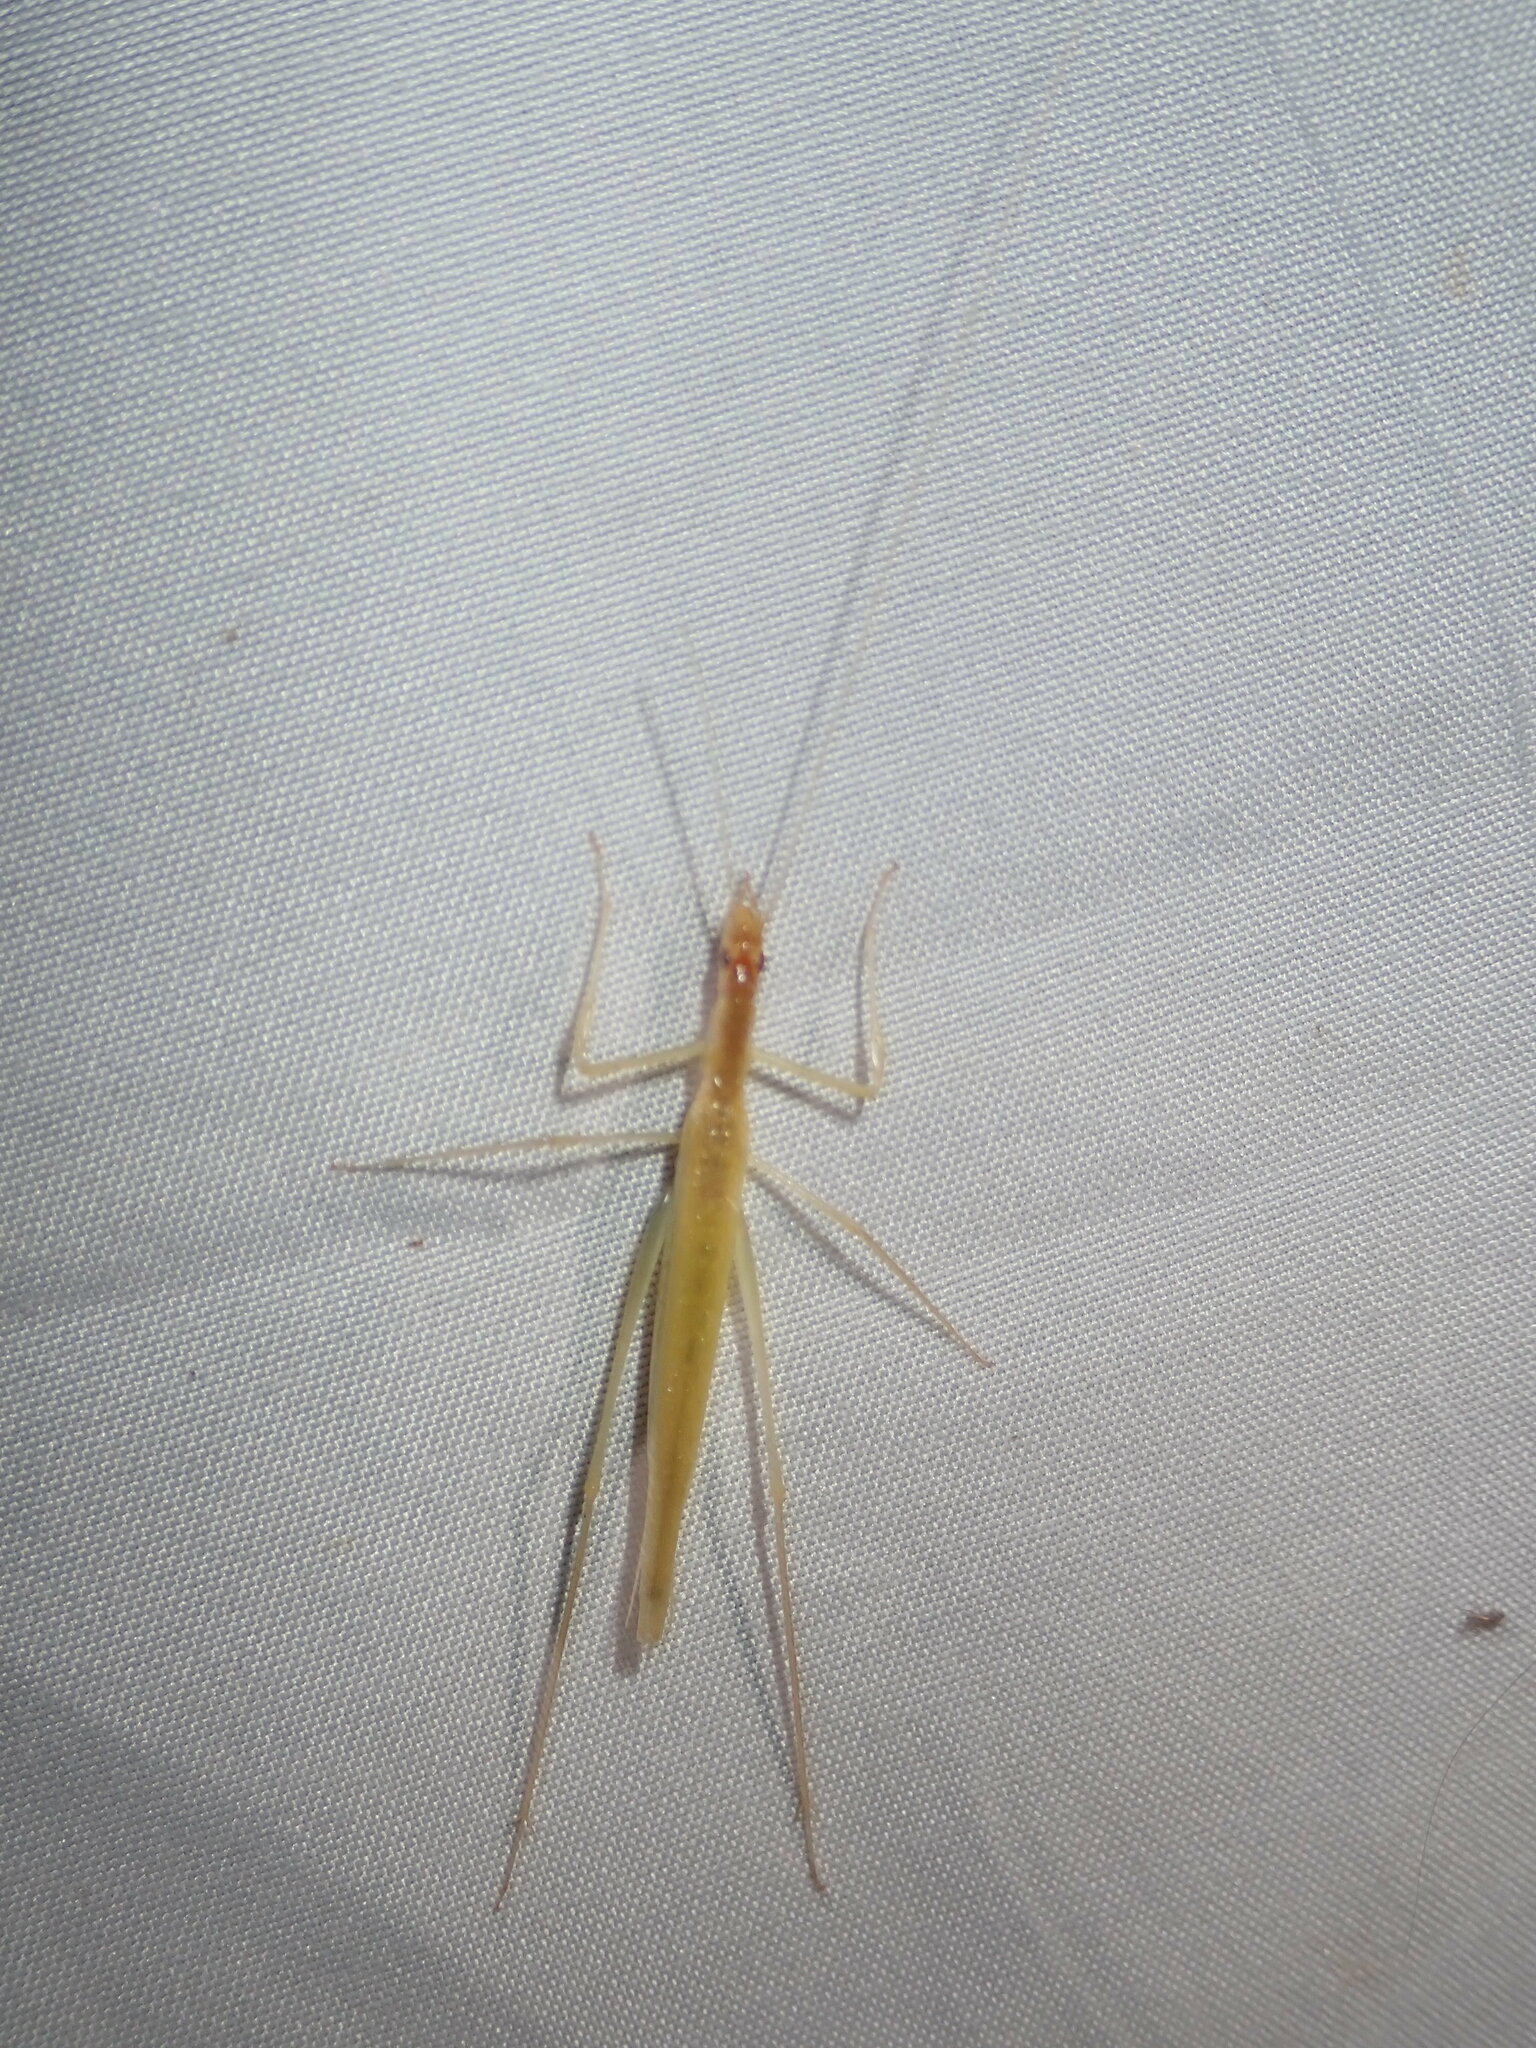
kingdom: Animalia
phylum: Arthropoda
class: Insecta
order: Orthoptera
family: Gryllidae
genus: Oecanthus
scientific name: Oecanthus symesi
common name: Golden tree cricket
